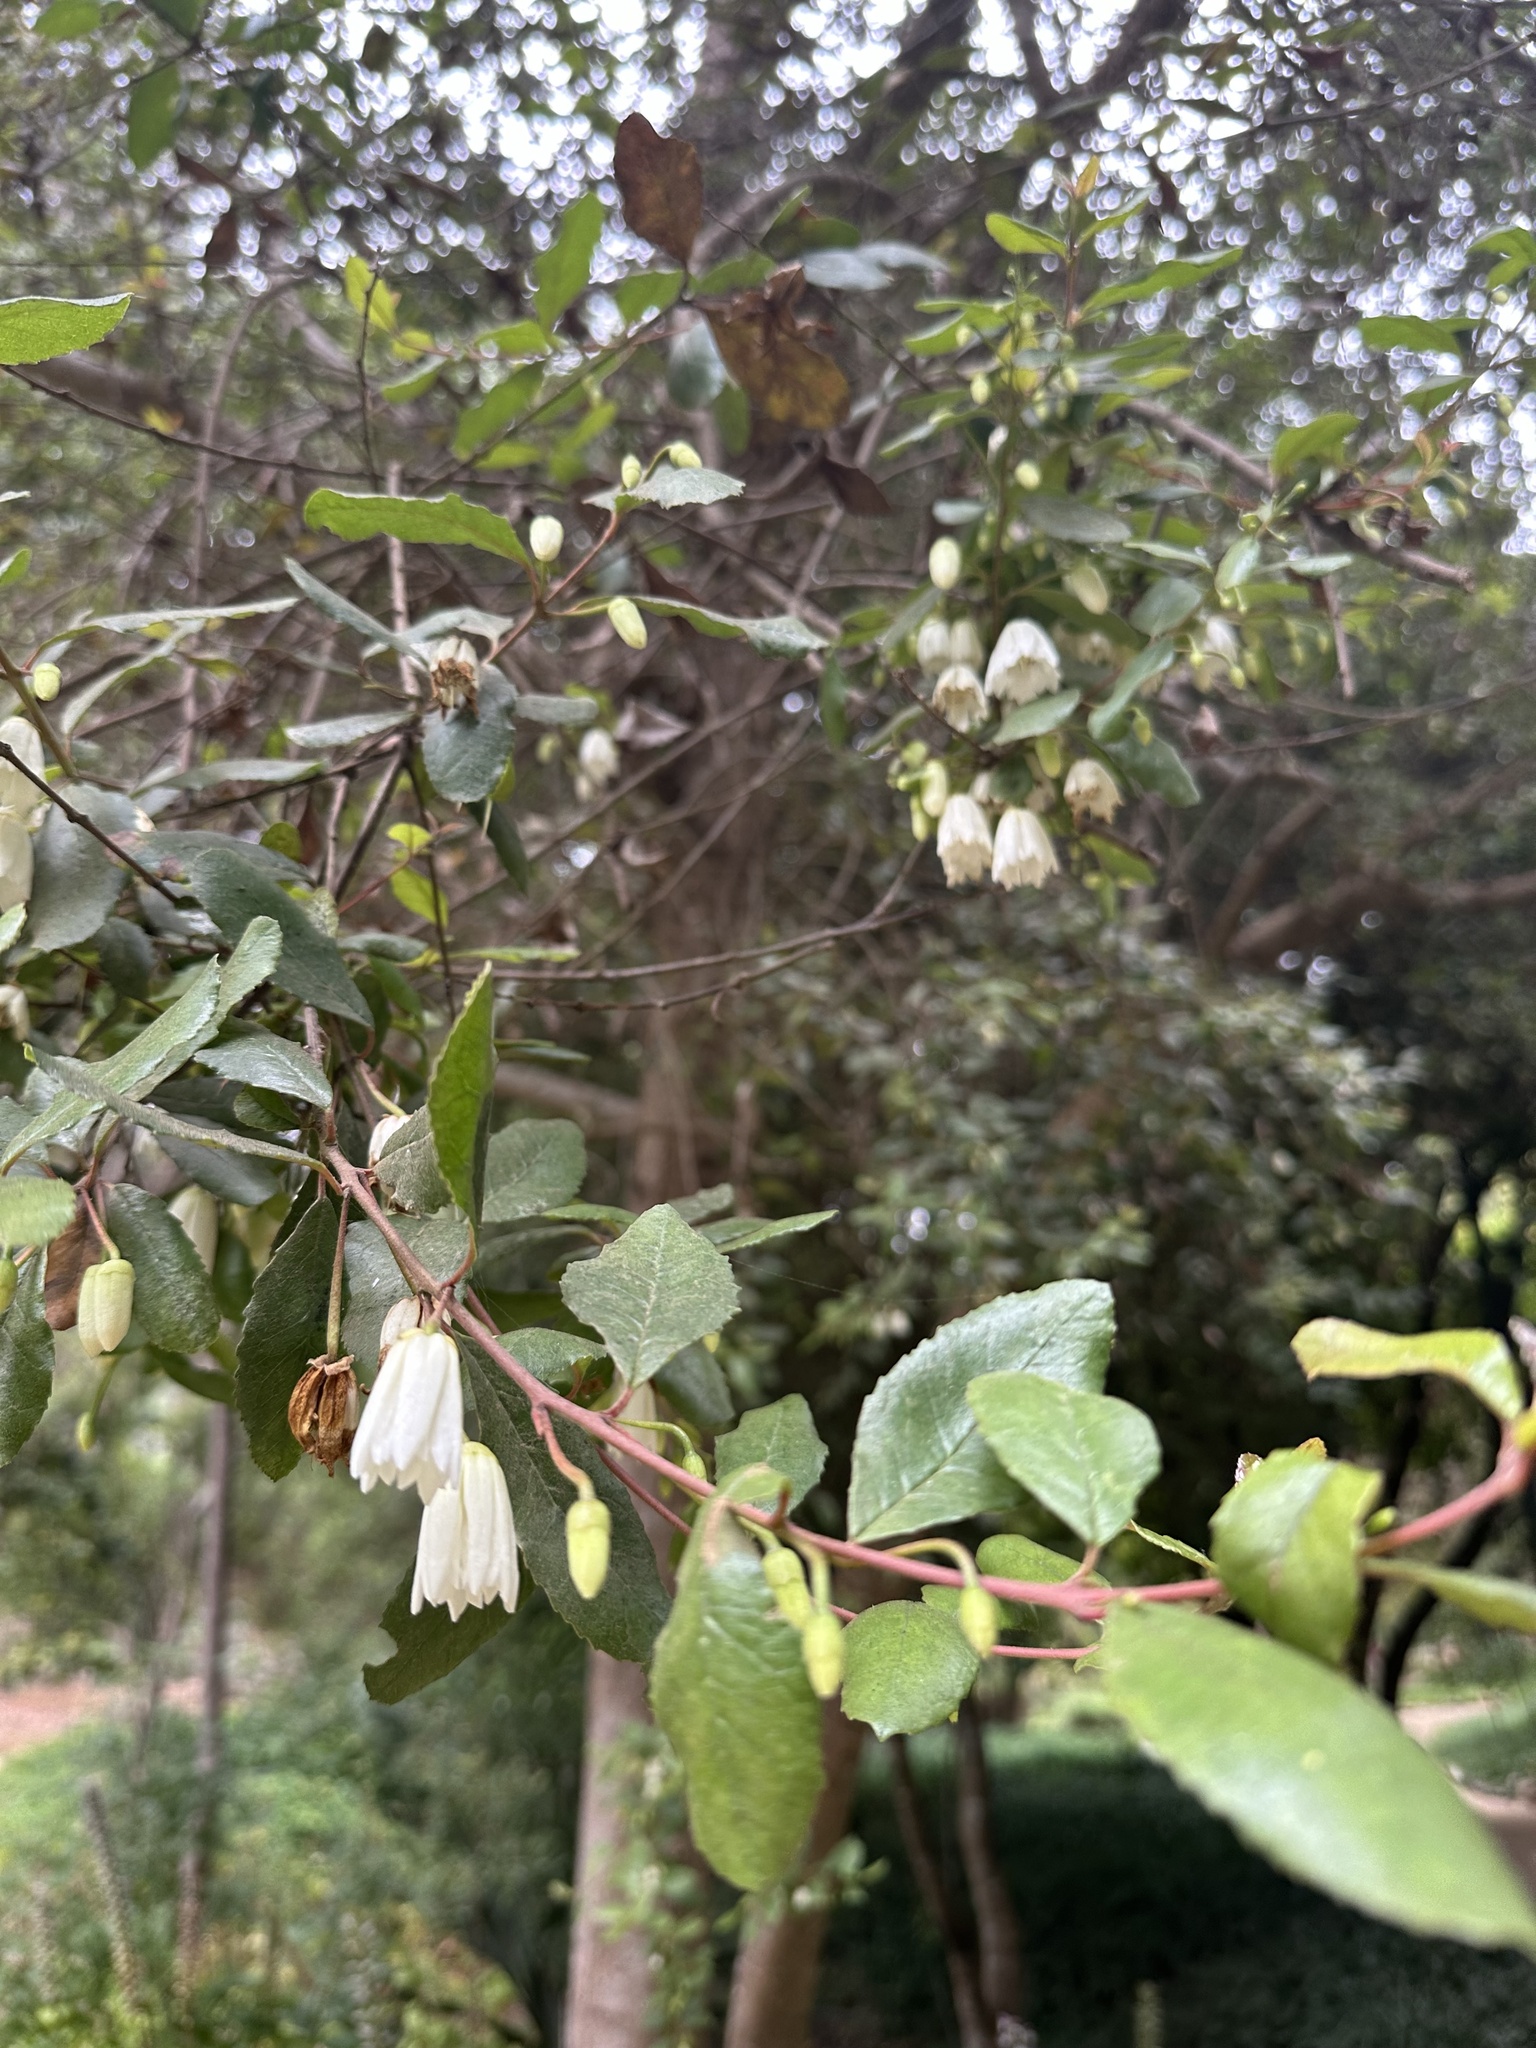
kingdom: Plantae
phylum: Tracheophyta
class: Magnoliopsida
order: Oxalidales
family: Elaeocarpaceae
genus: Crinodendron
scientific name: Crinodendron patagua
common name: Lily-of-the-valley-tree
